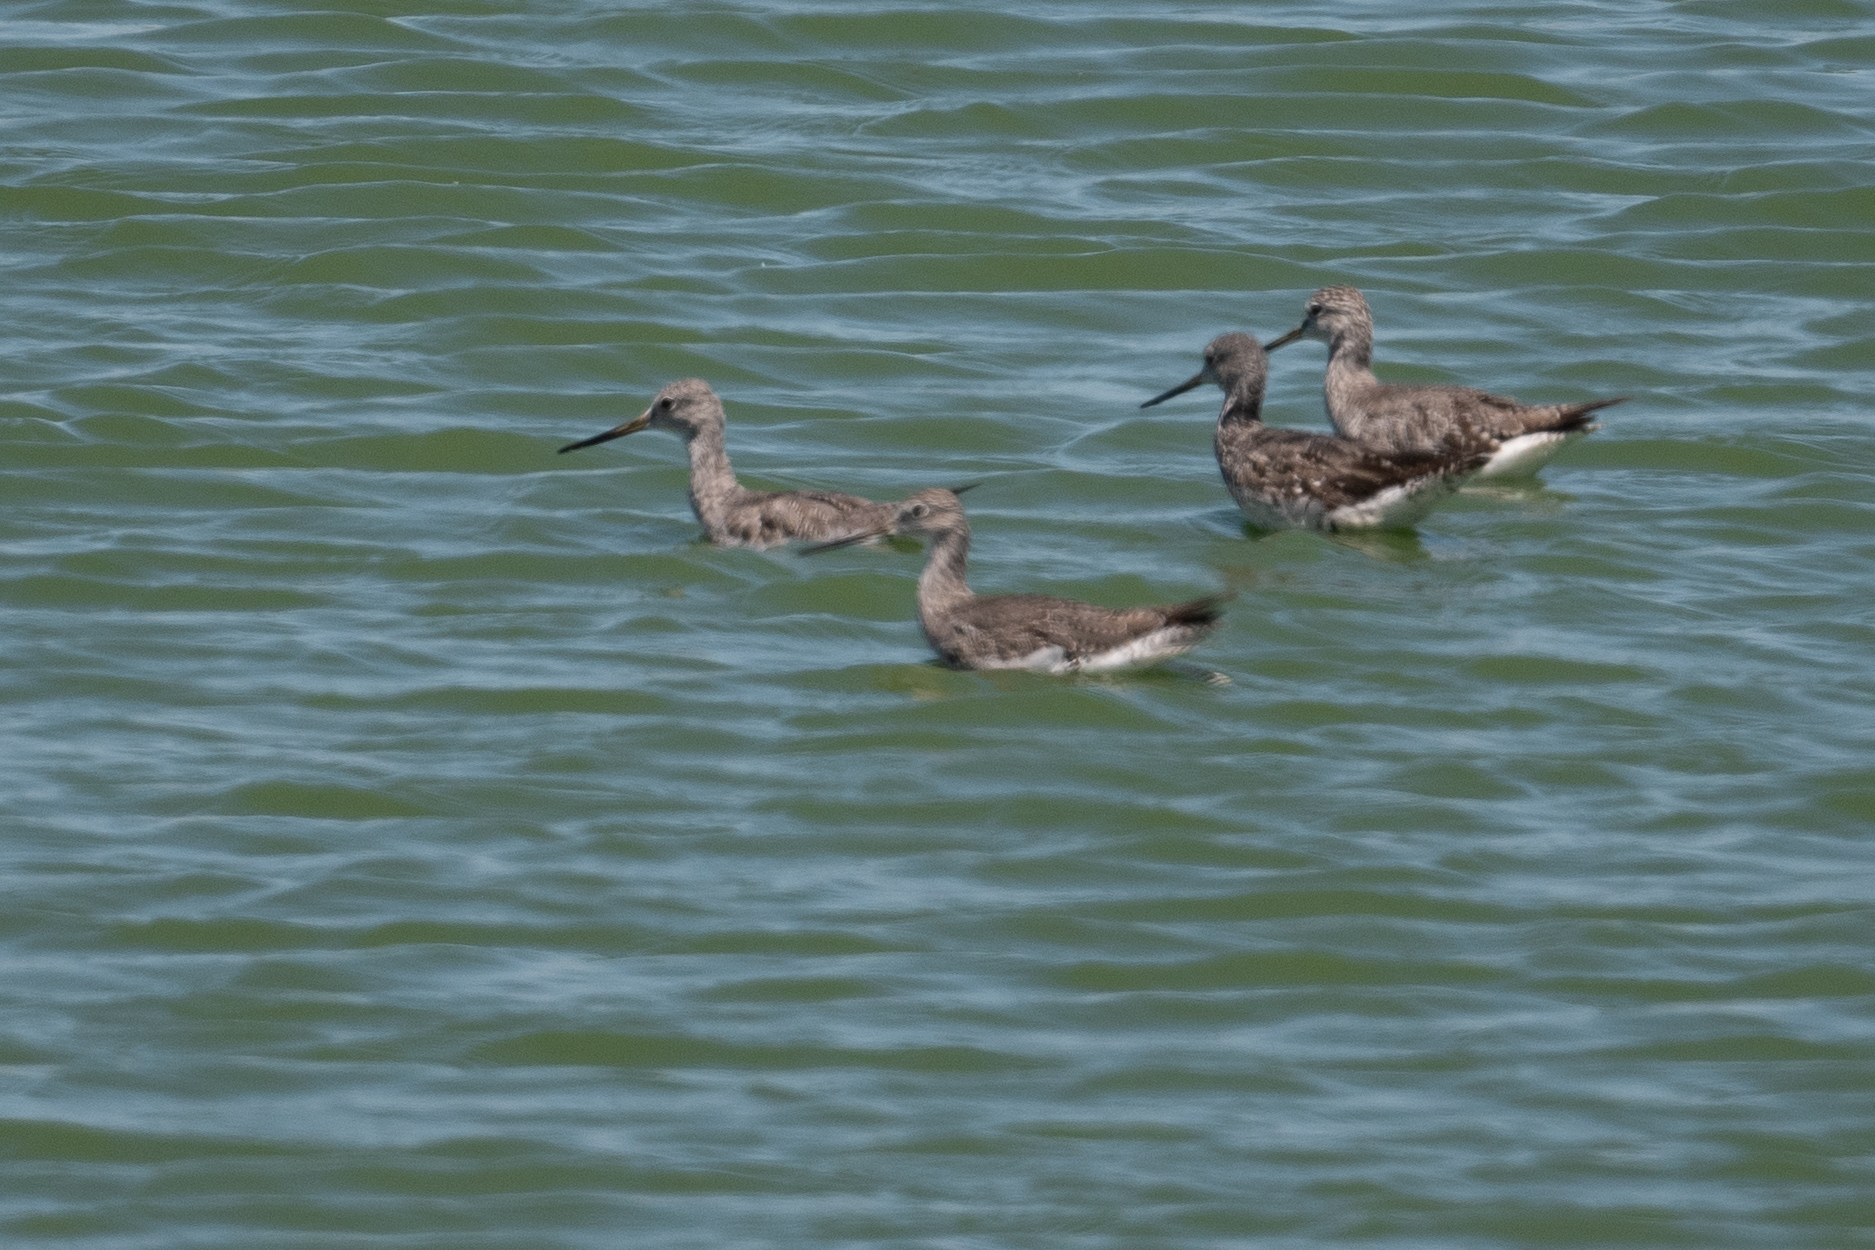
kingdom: Animalia
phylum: Chordata
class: Aves
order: Charadriiformes
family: Scolopacidae
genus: Tringa
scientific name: Tringa melanoleuca
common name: Greater yellowlegs
